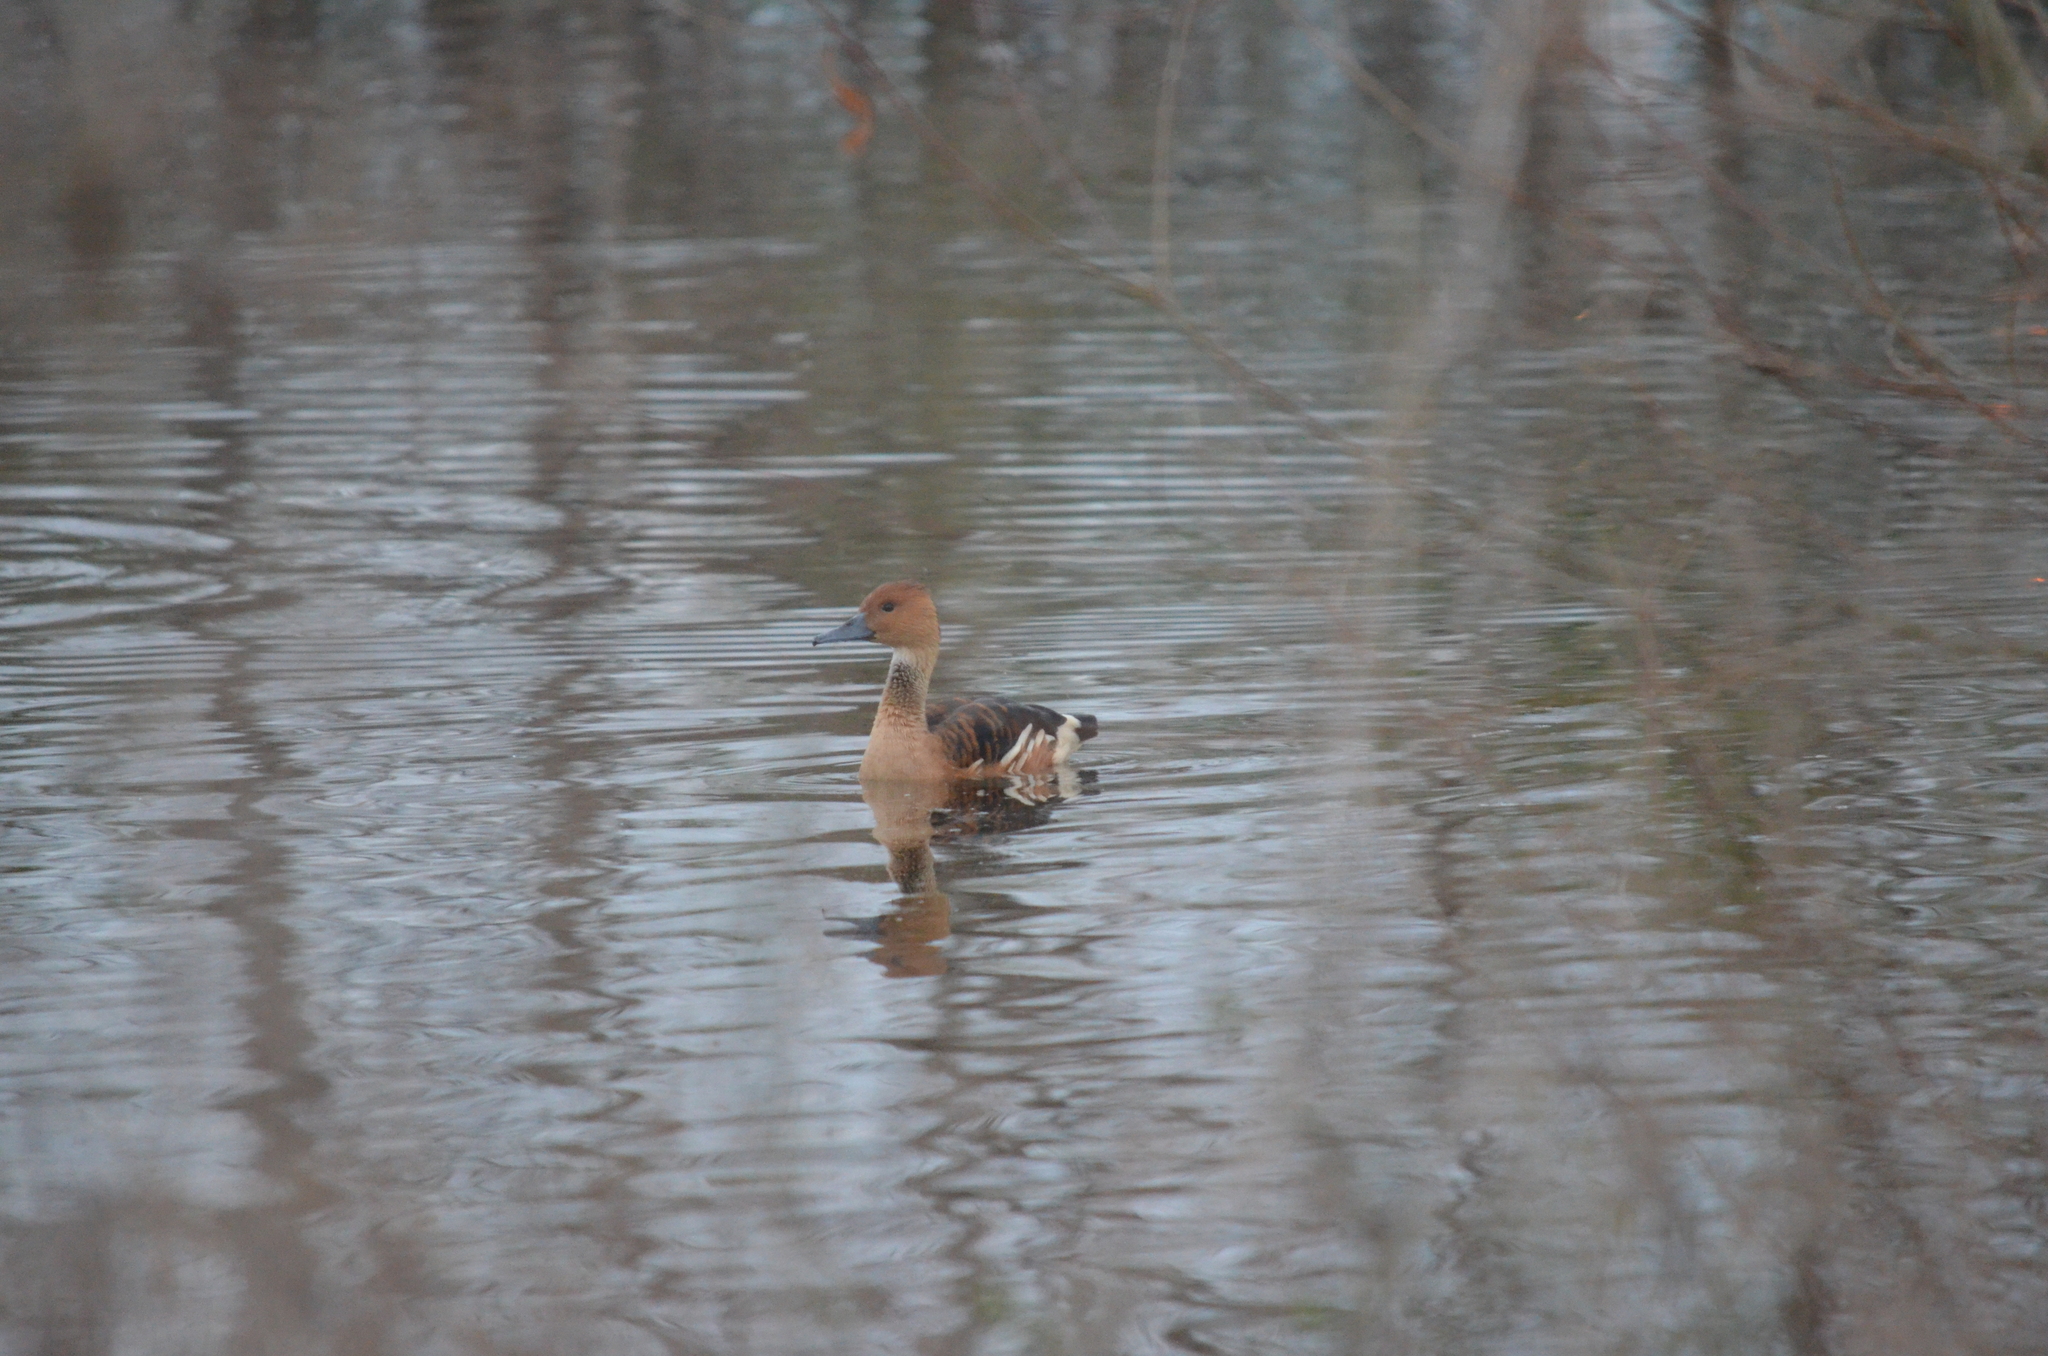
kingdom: Animalia
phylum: Chordata
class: Aves
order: Anseriformes
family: Anatidae
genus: Dendrocygna
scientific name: Dendrocygna bicolor
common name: Fulvous whistling duck
